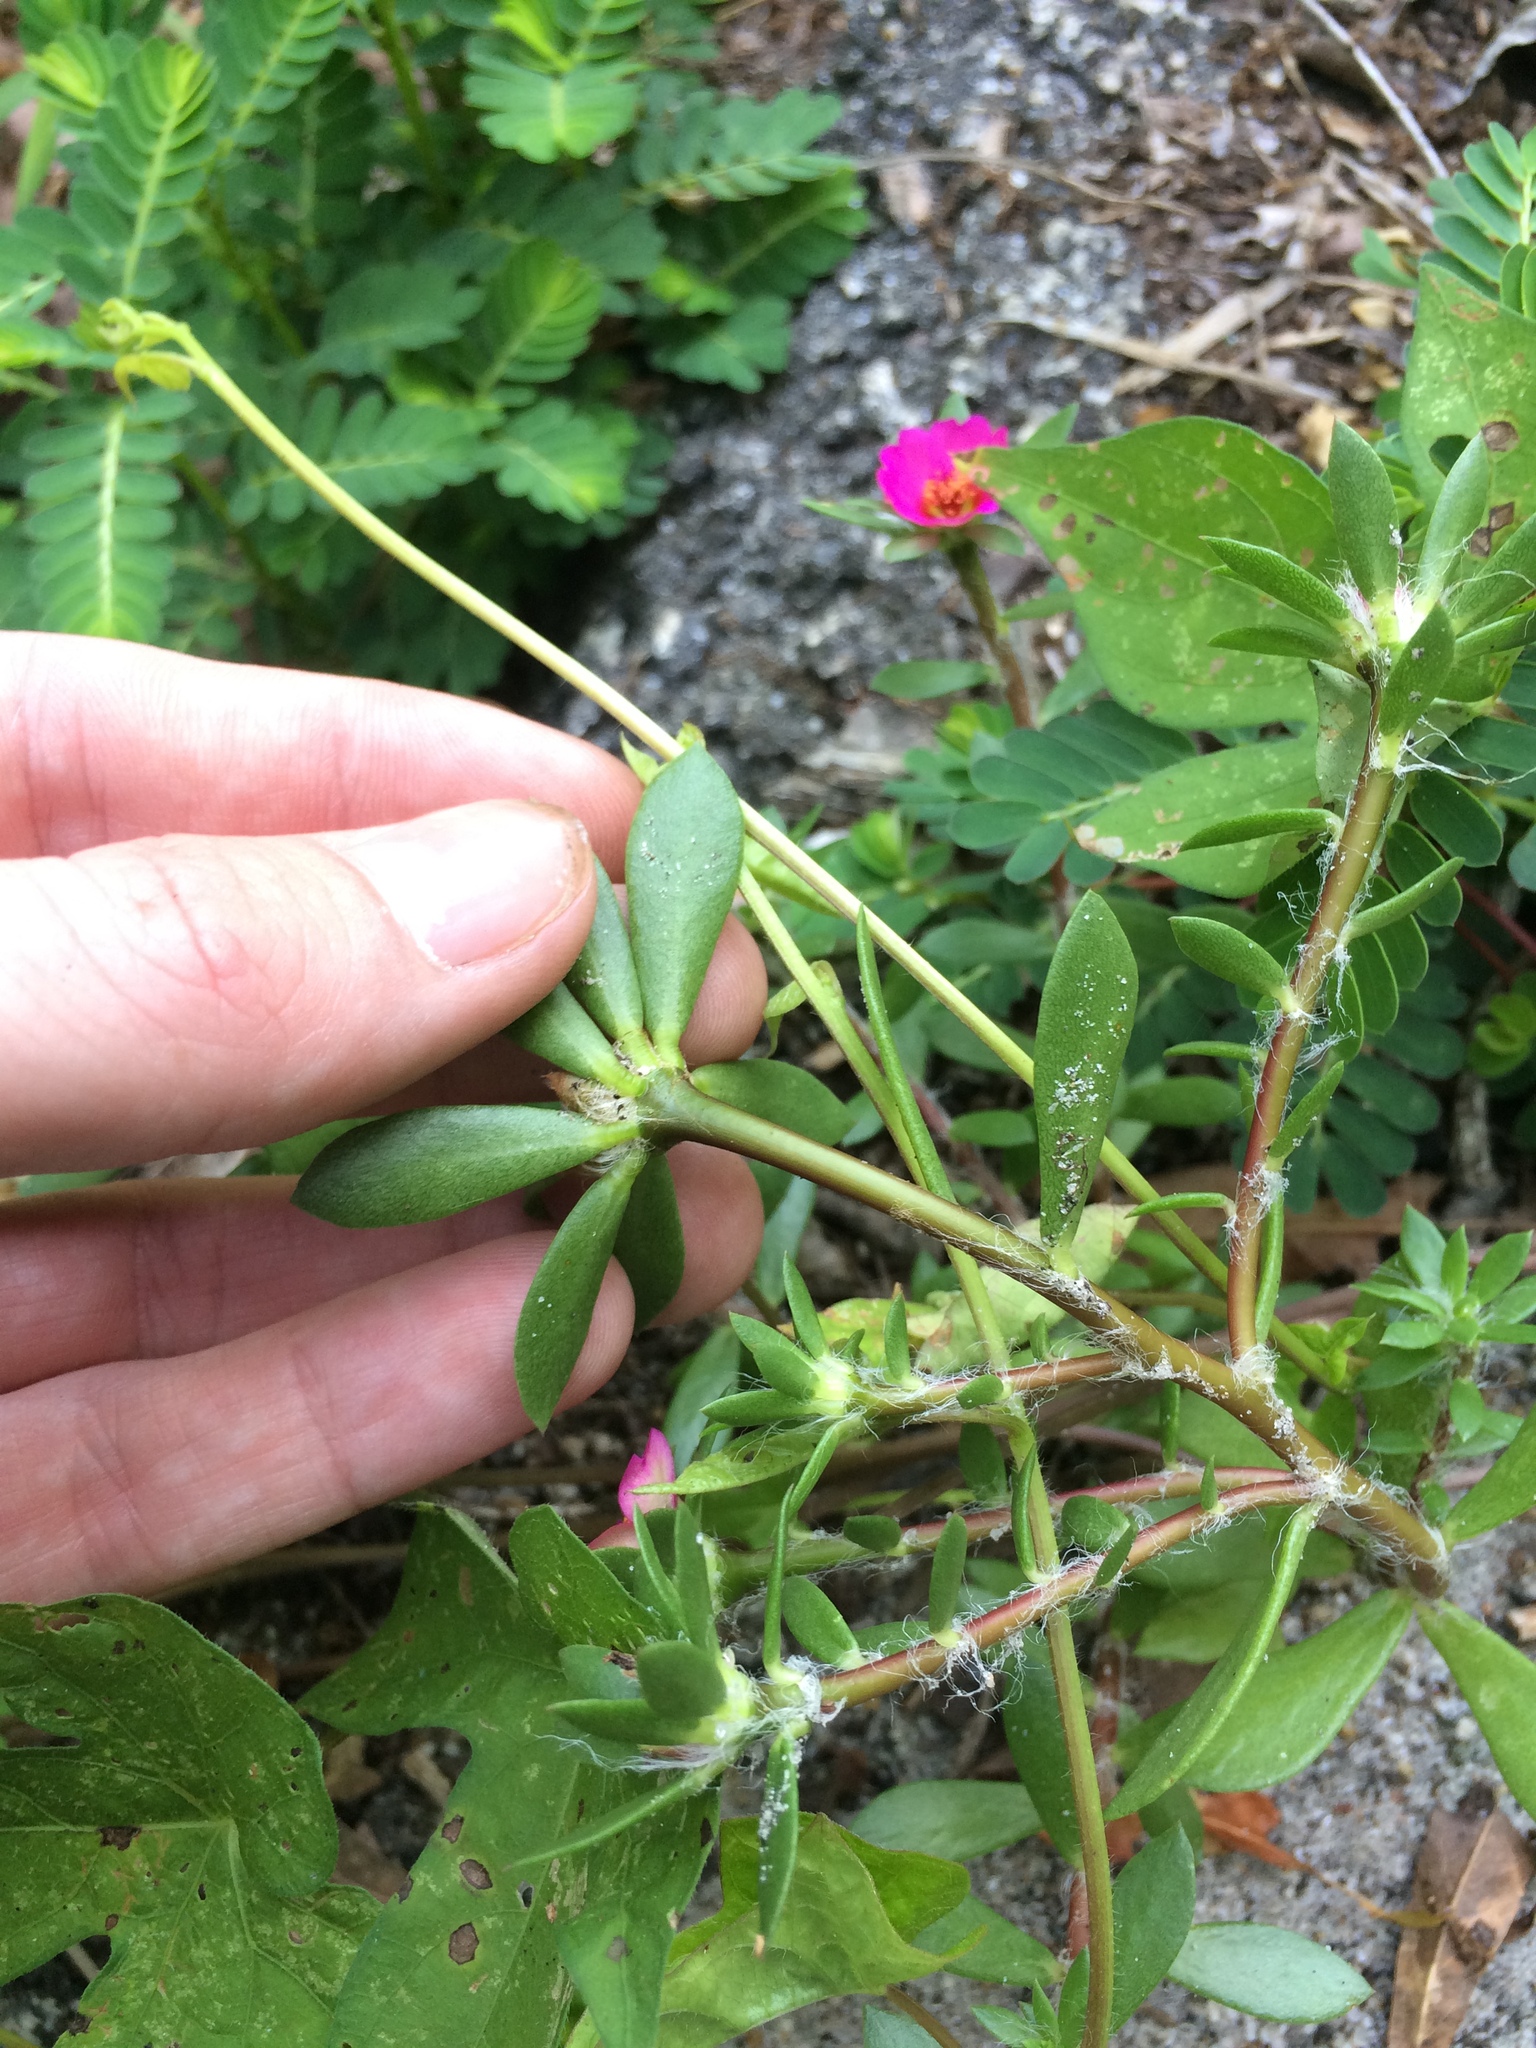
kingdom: Plantae
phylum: Tracheophyta
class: Magnoliopsida
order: Caryophyllales
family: Portulacaceae
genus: Portulaca
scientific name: Portulaca amilis
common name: Paraguayan purslane
